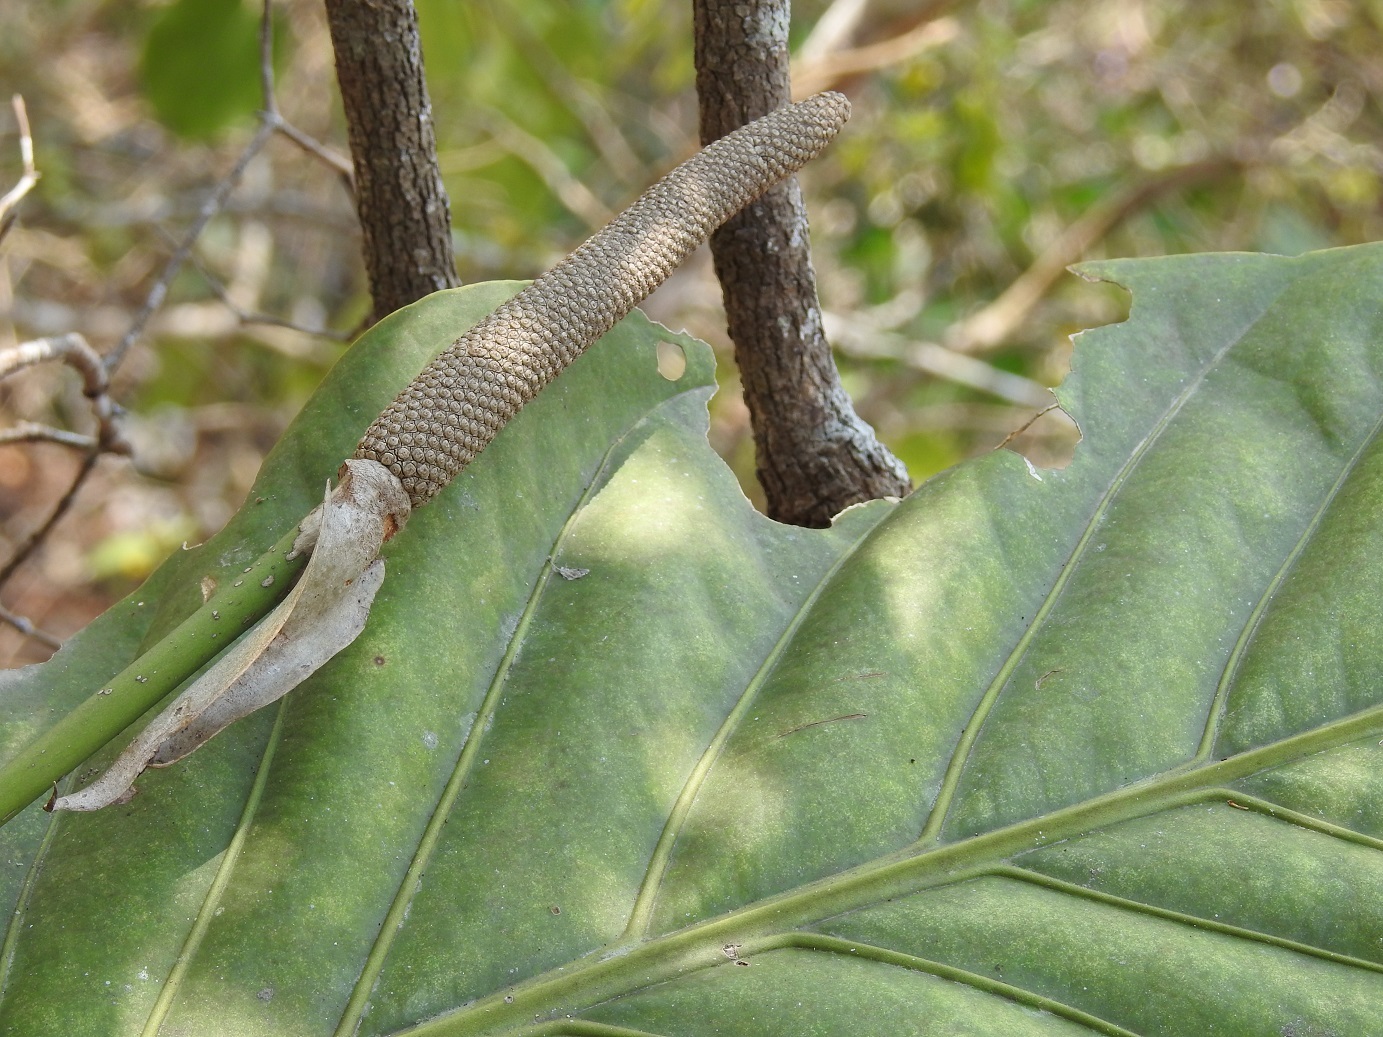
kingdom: Plantae
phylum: Tracheophyta
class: Liliopsida
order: Alismatales
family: Araceae
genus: Anthurium
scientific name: Anthurium schlechtendalii
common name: Laceleaf
